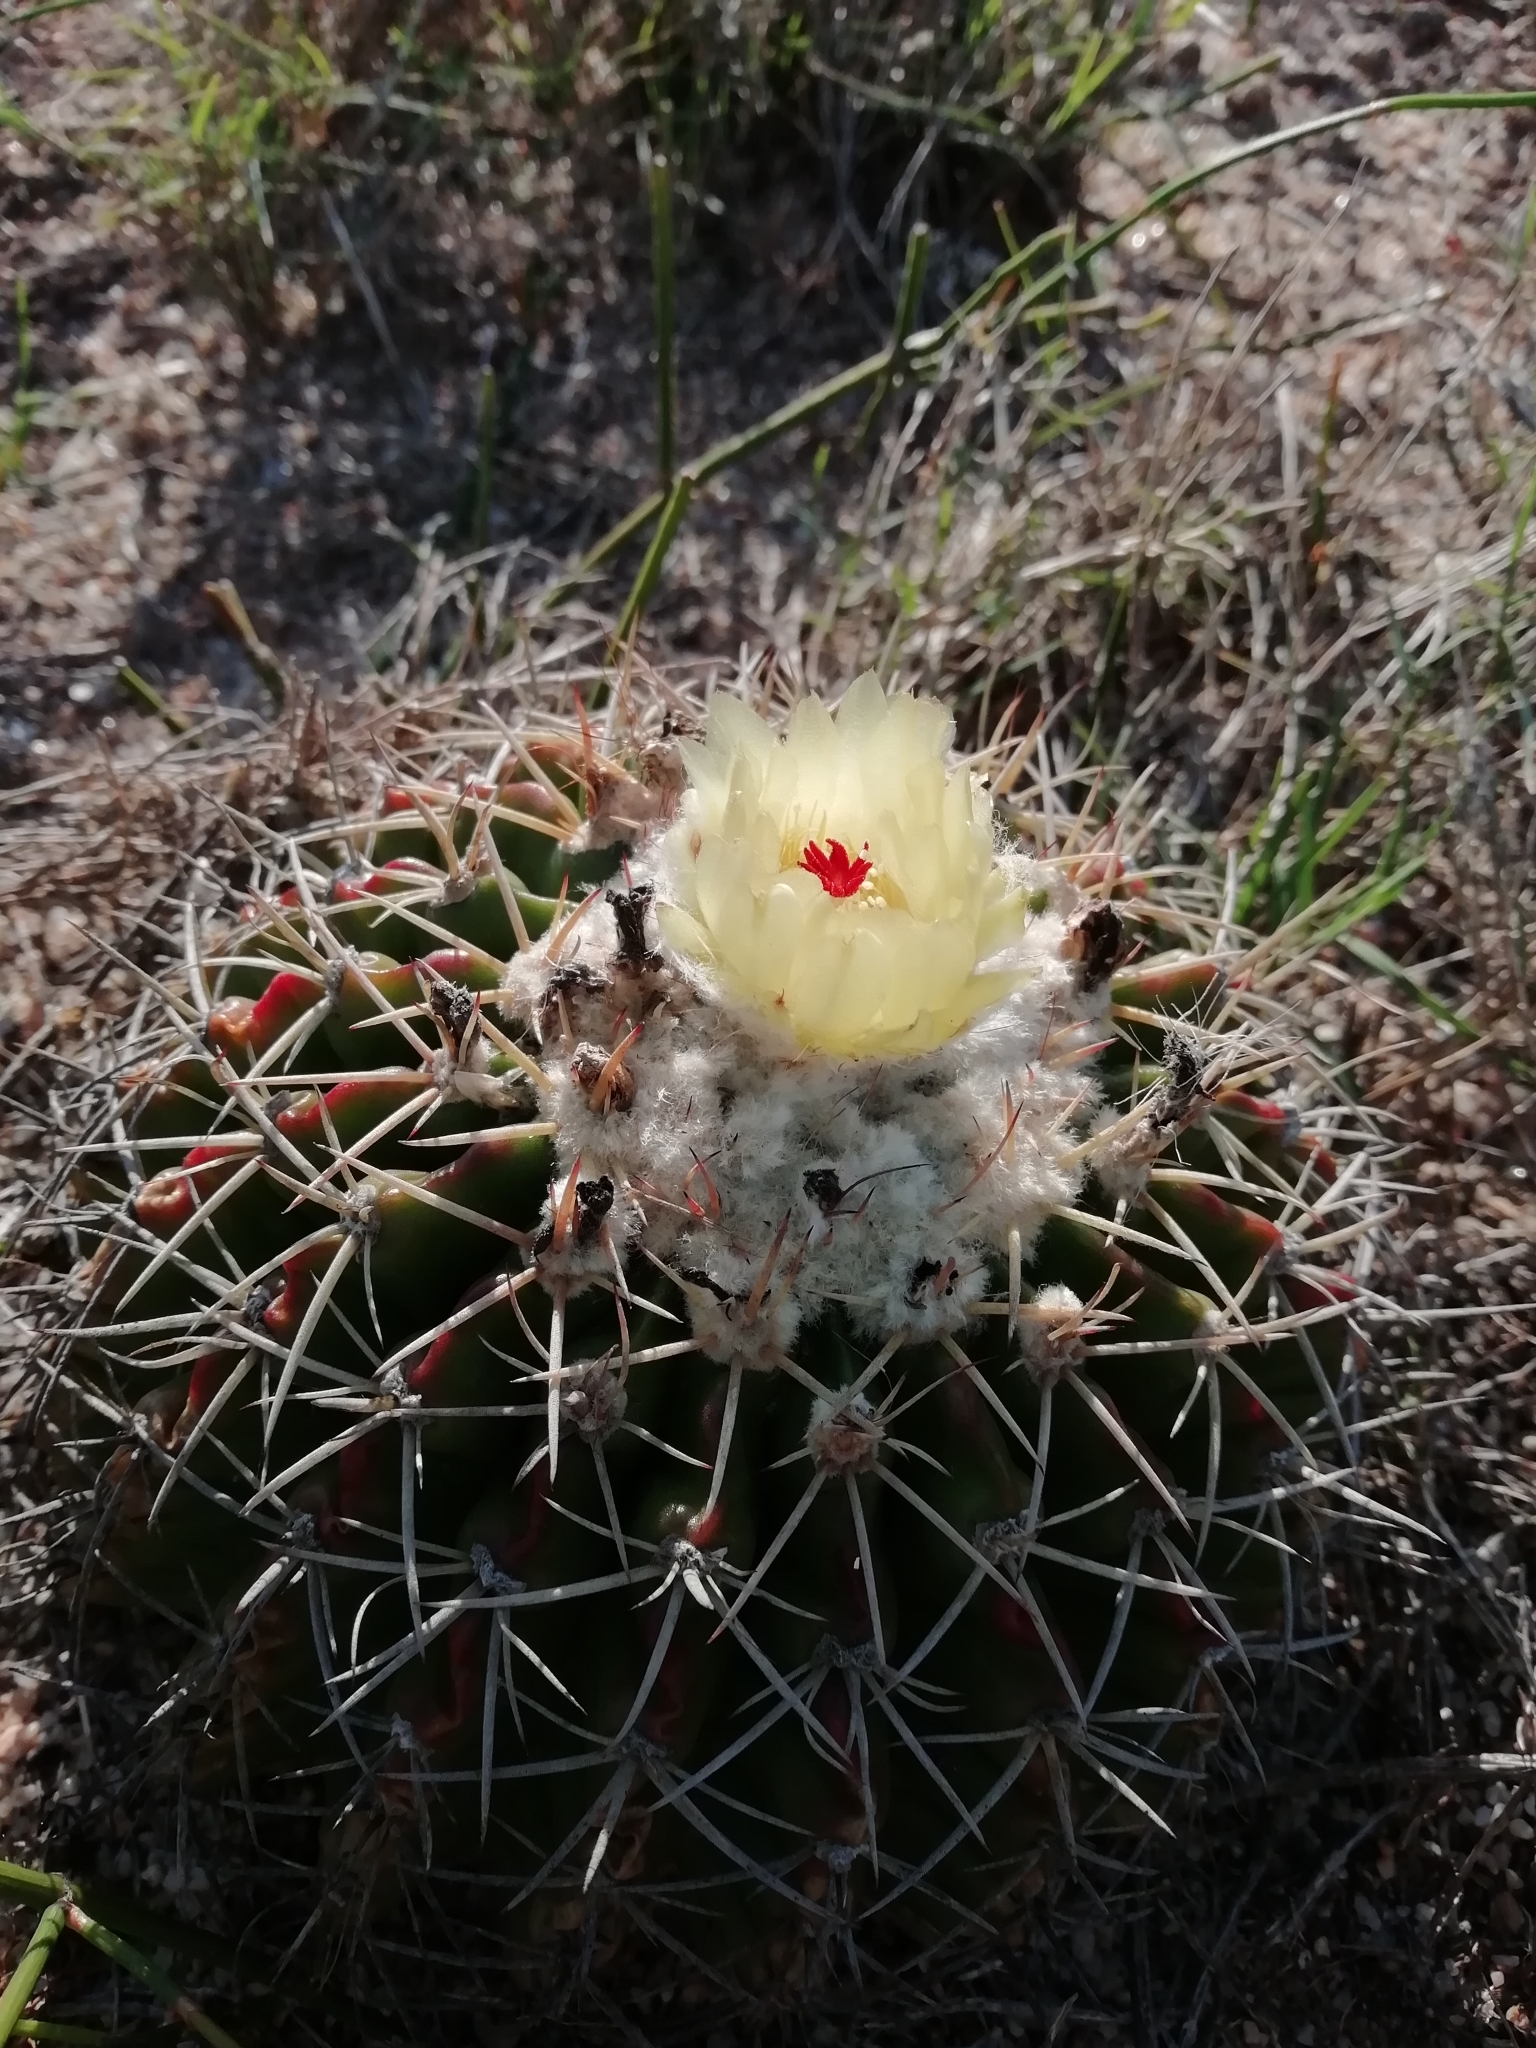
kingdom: Plantae
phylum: Tracheophyta
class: Magnoliopsida
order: Caryophyllales
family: Cactaceae
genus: Parodia
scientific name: Parodia erinacea
